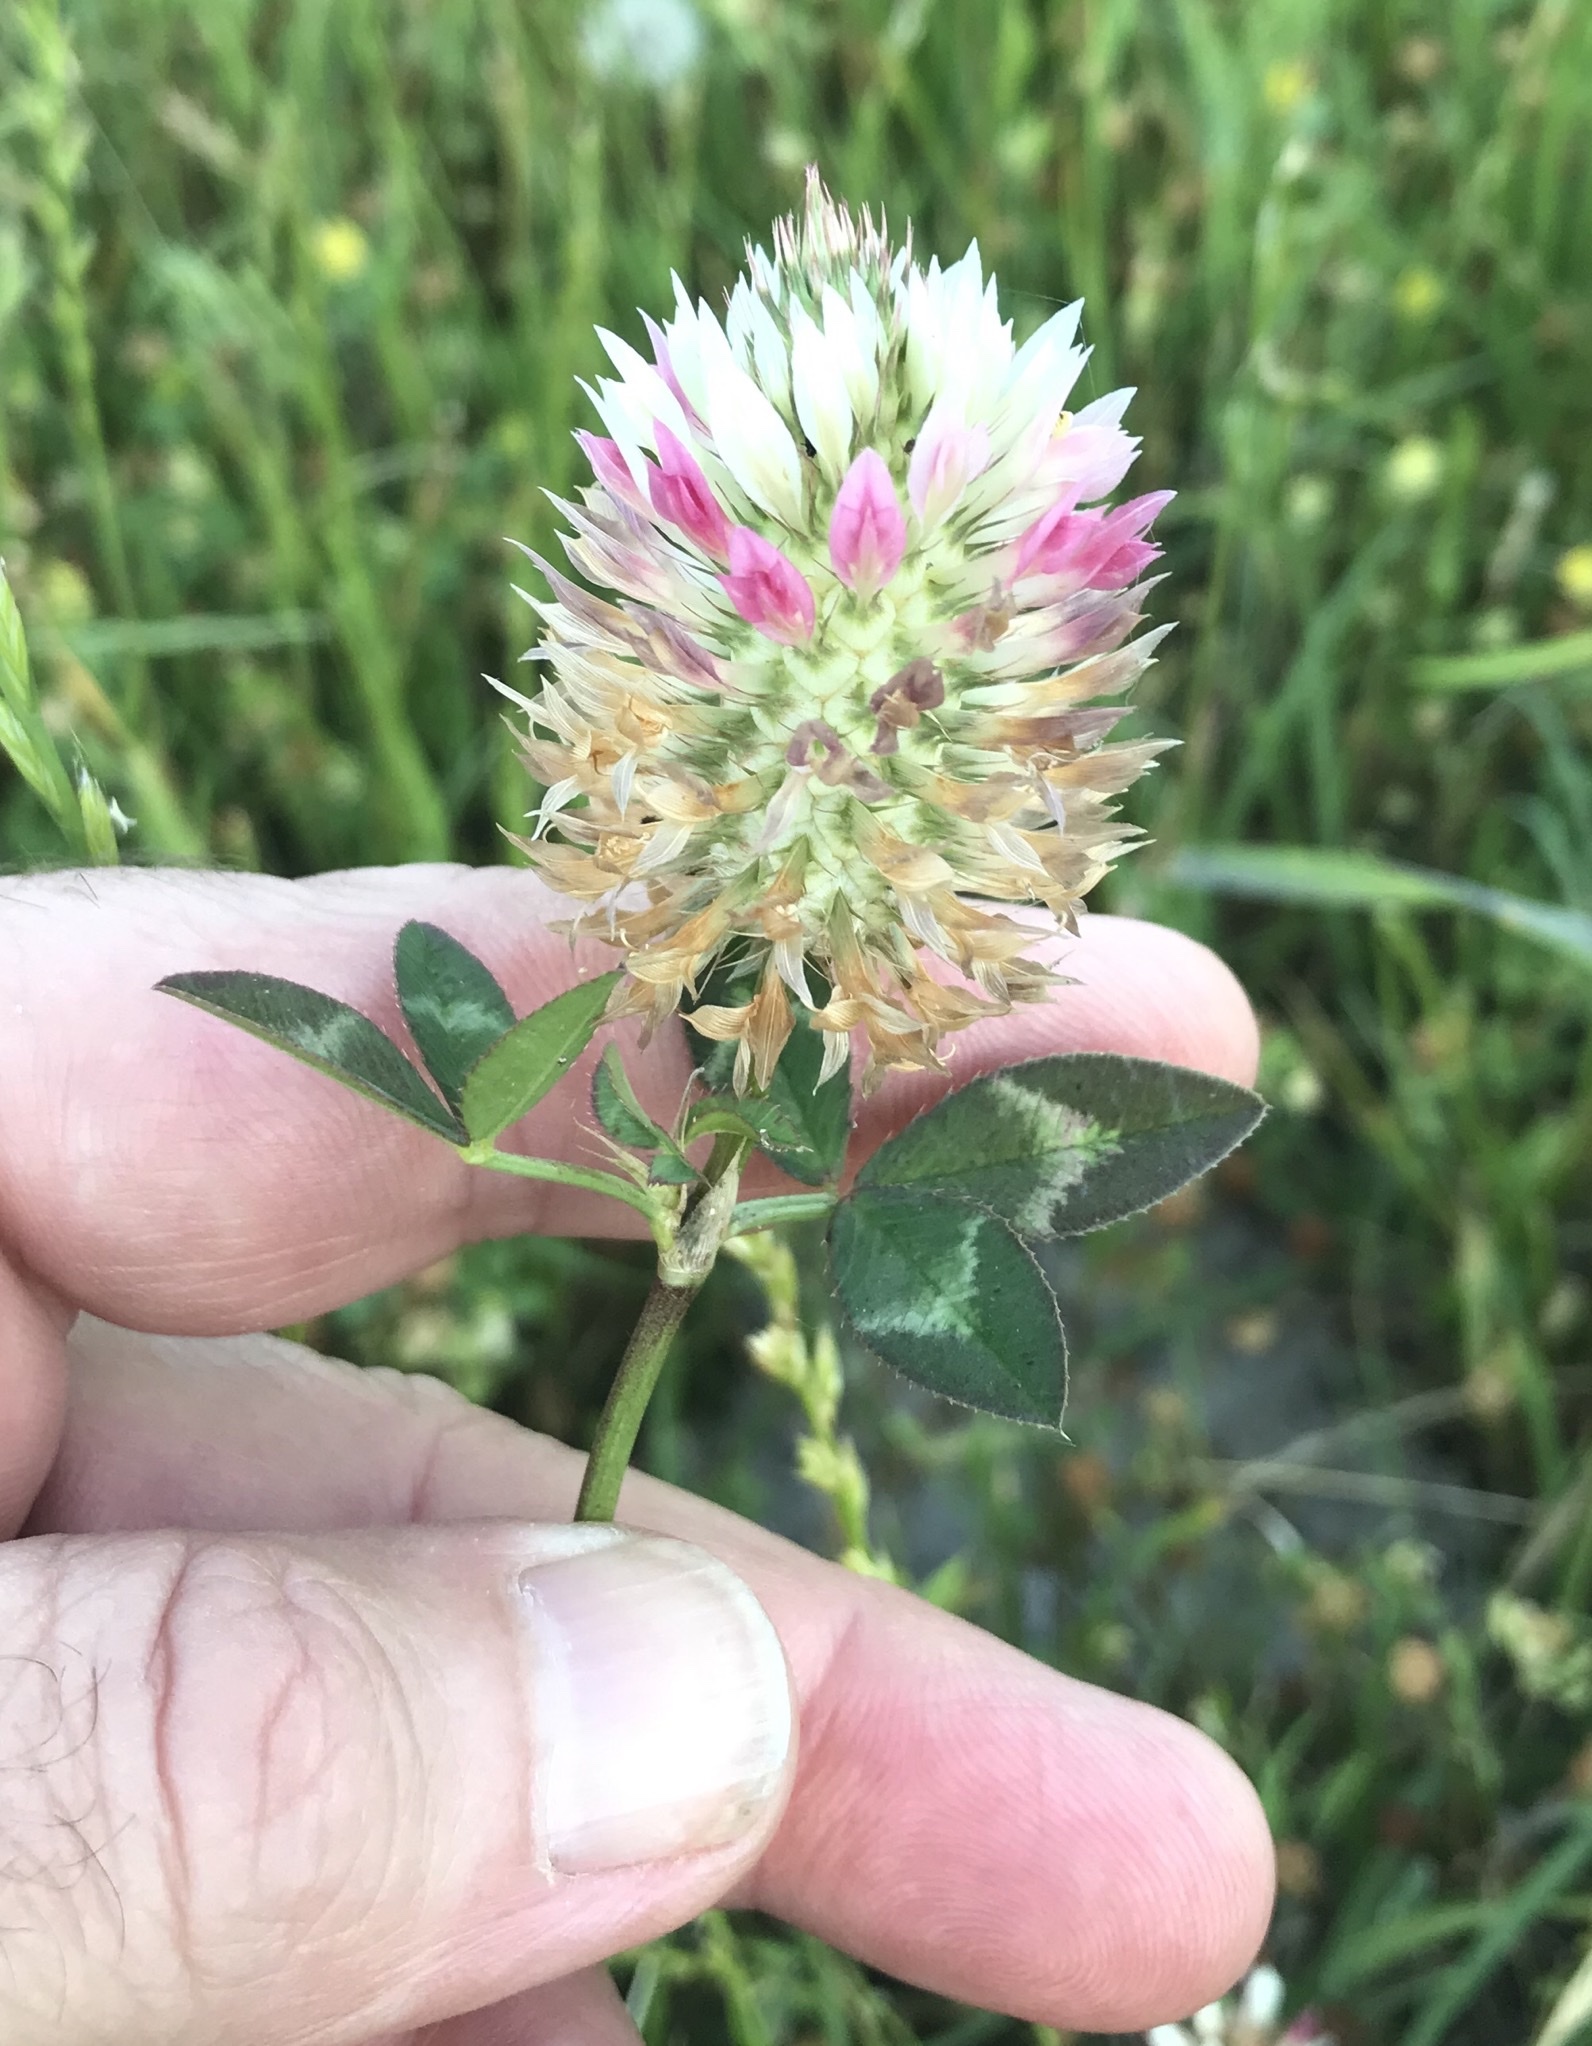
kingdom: Plantae
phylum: Tracheophyta
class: Magnoliopsida
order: Fabales
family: Fabaceae
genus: Trifolium
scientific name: Trifolium vesiculosum
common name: Arrowleaf clover
